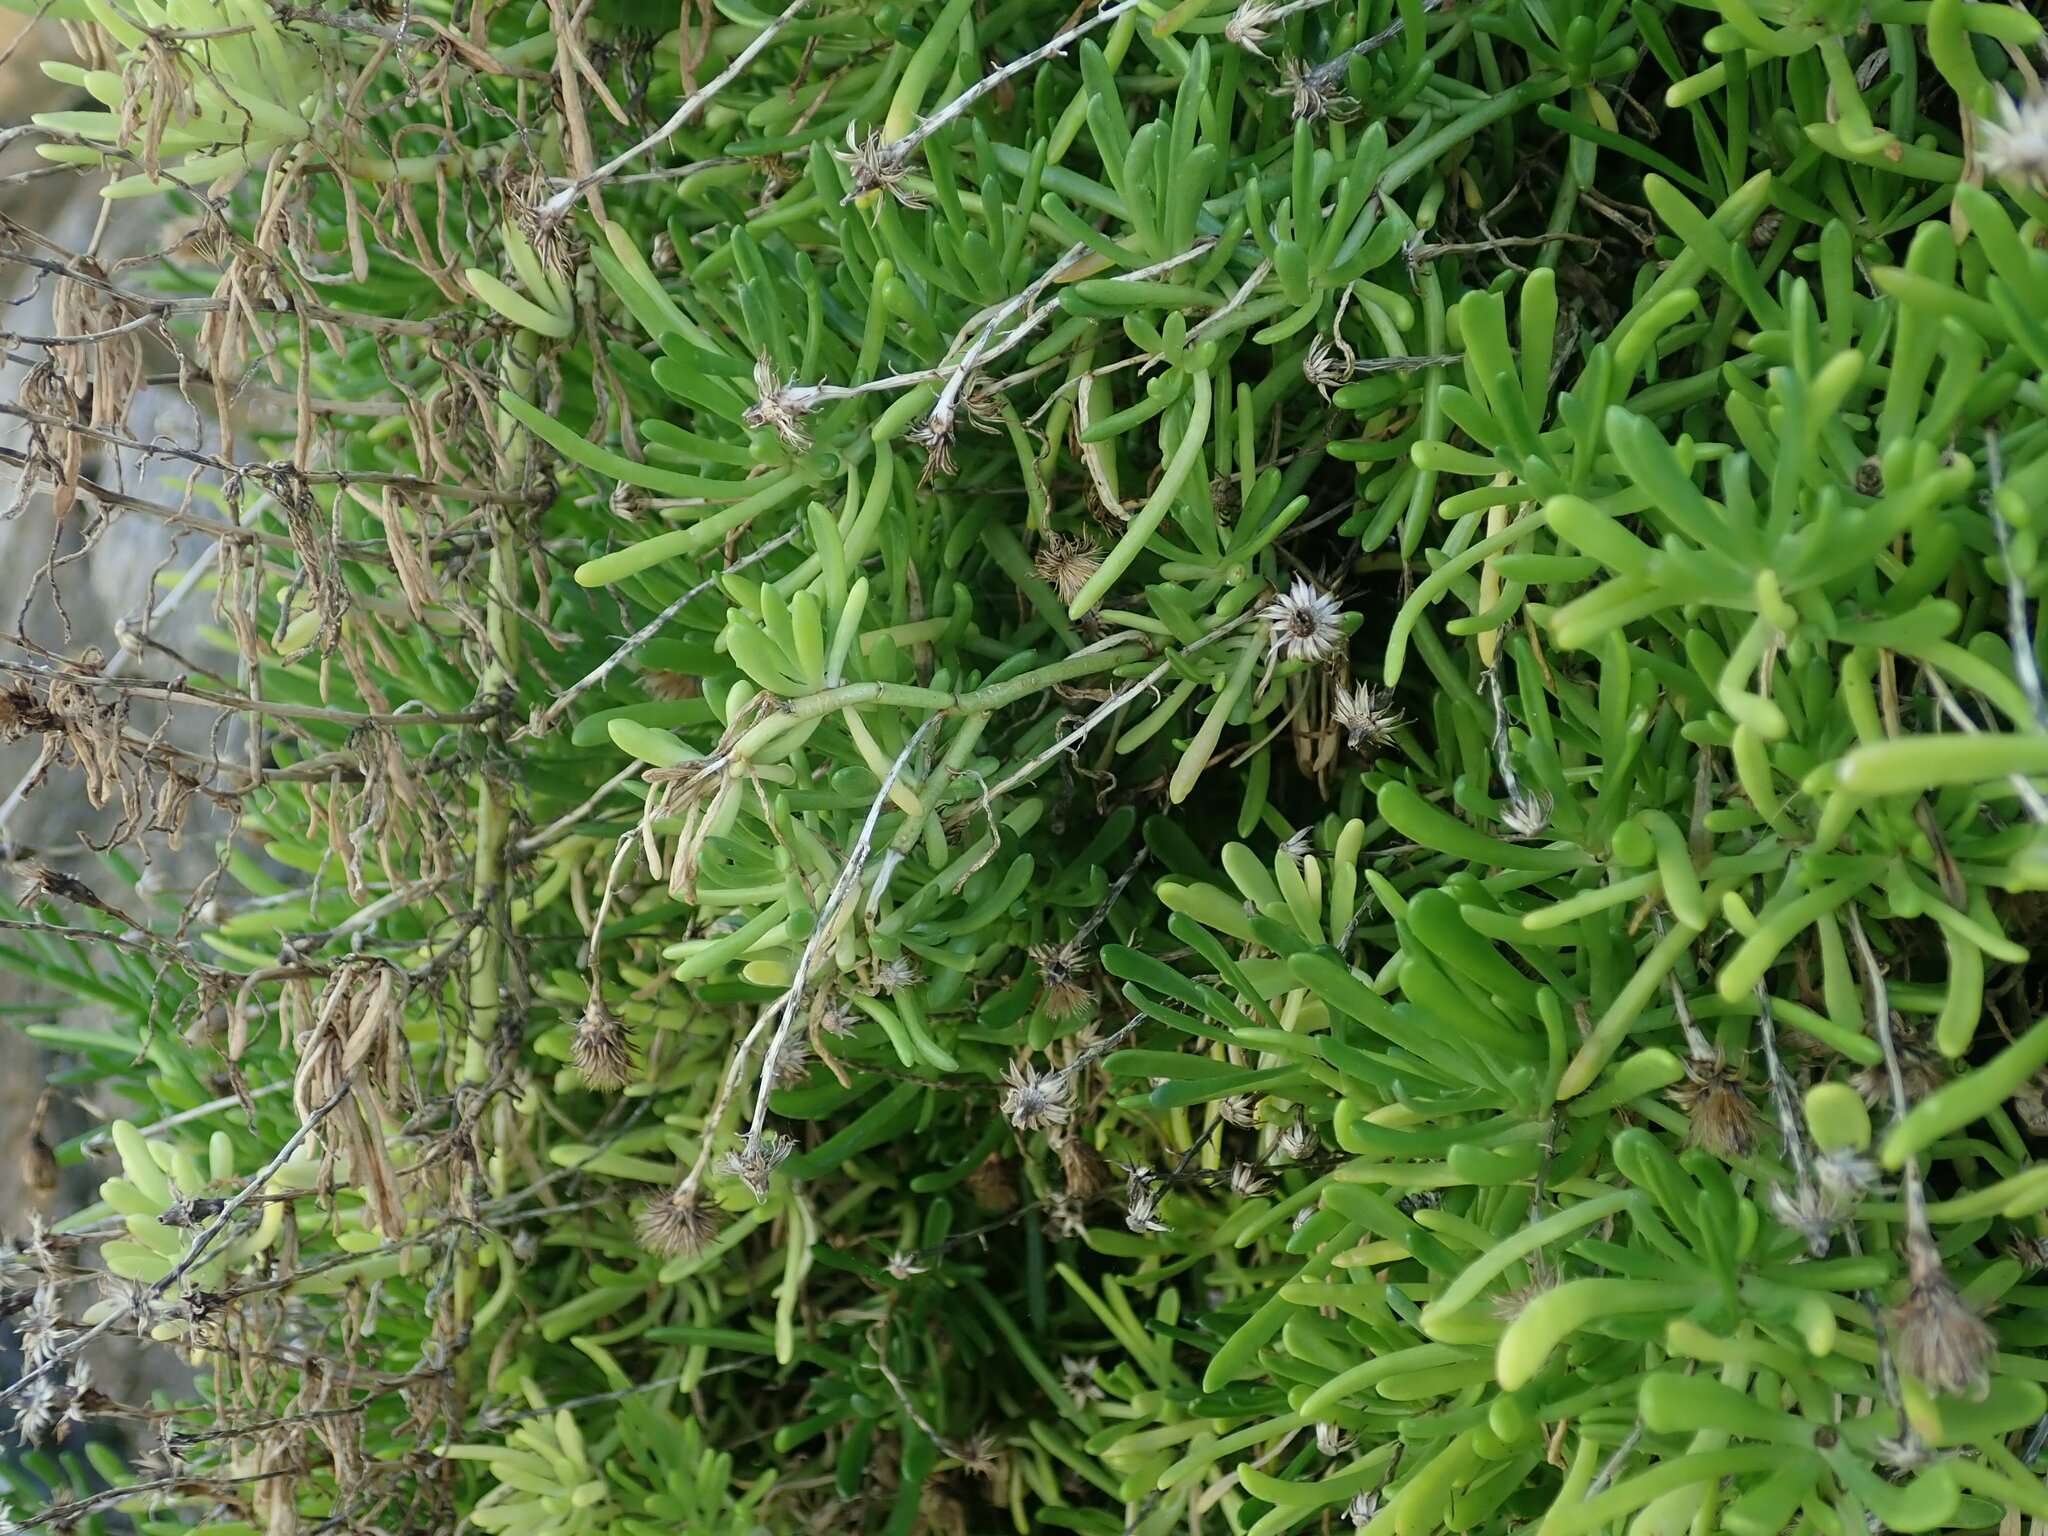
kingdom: Plantae
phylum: Tracheophyta
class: Magnoliopsida
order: Asterales
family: Asteraceae
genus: Limbarda
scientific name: Limbarda crithmoides
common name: Golden samphire
